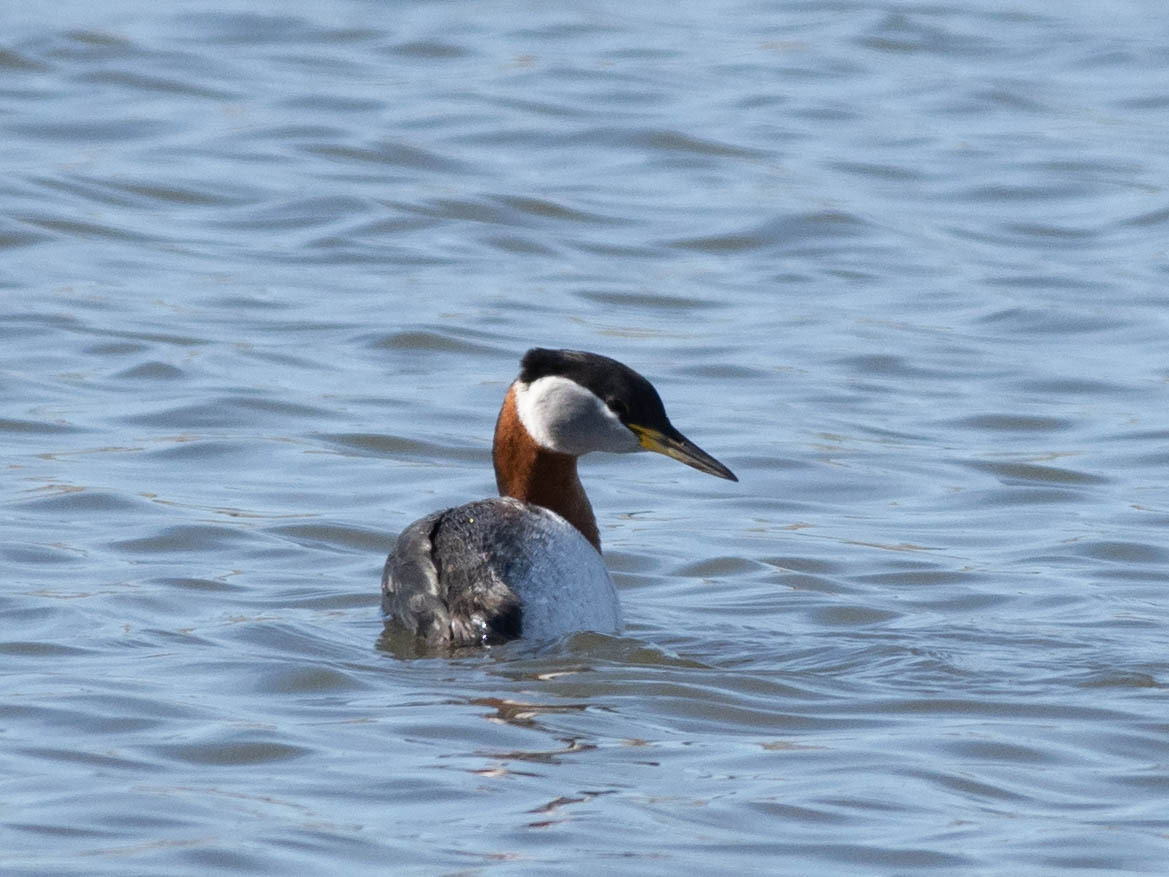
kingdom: Animalia
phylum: Chordata
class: Aves
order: Podicipediformes
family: Podicipedidae
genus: Podiceps
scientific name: Podiceps grisegena
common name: Red-necked grebe
